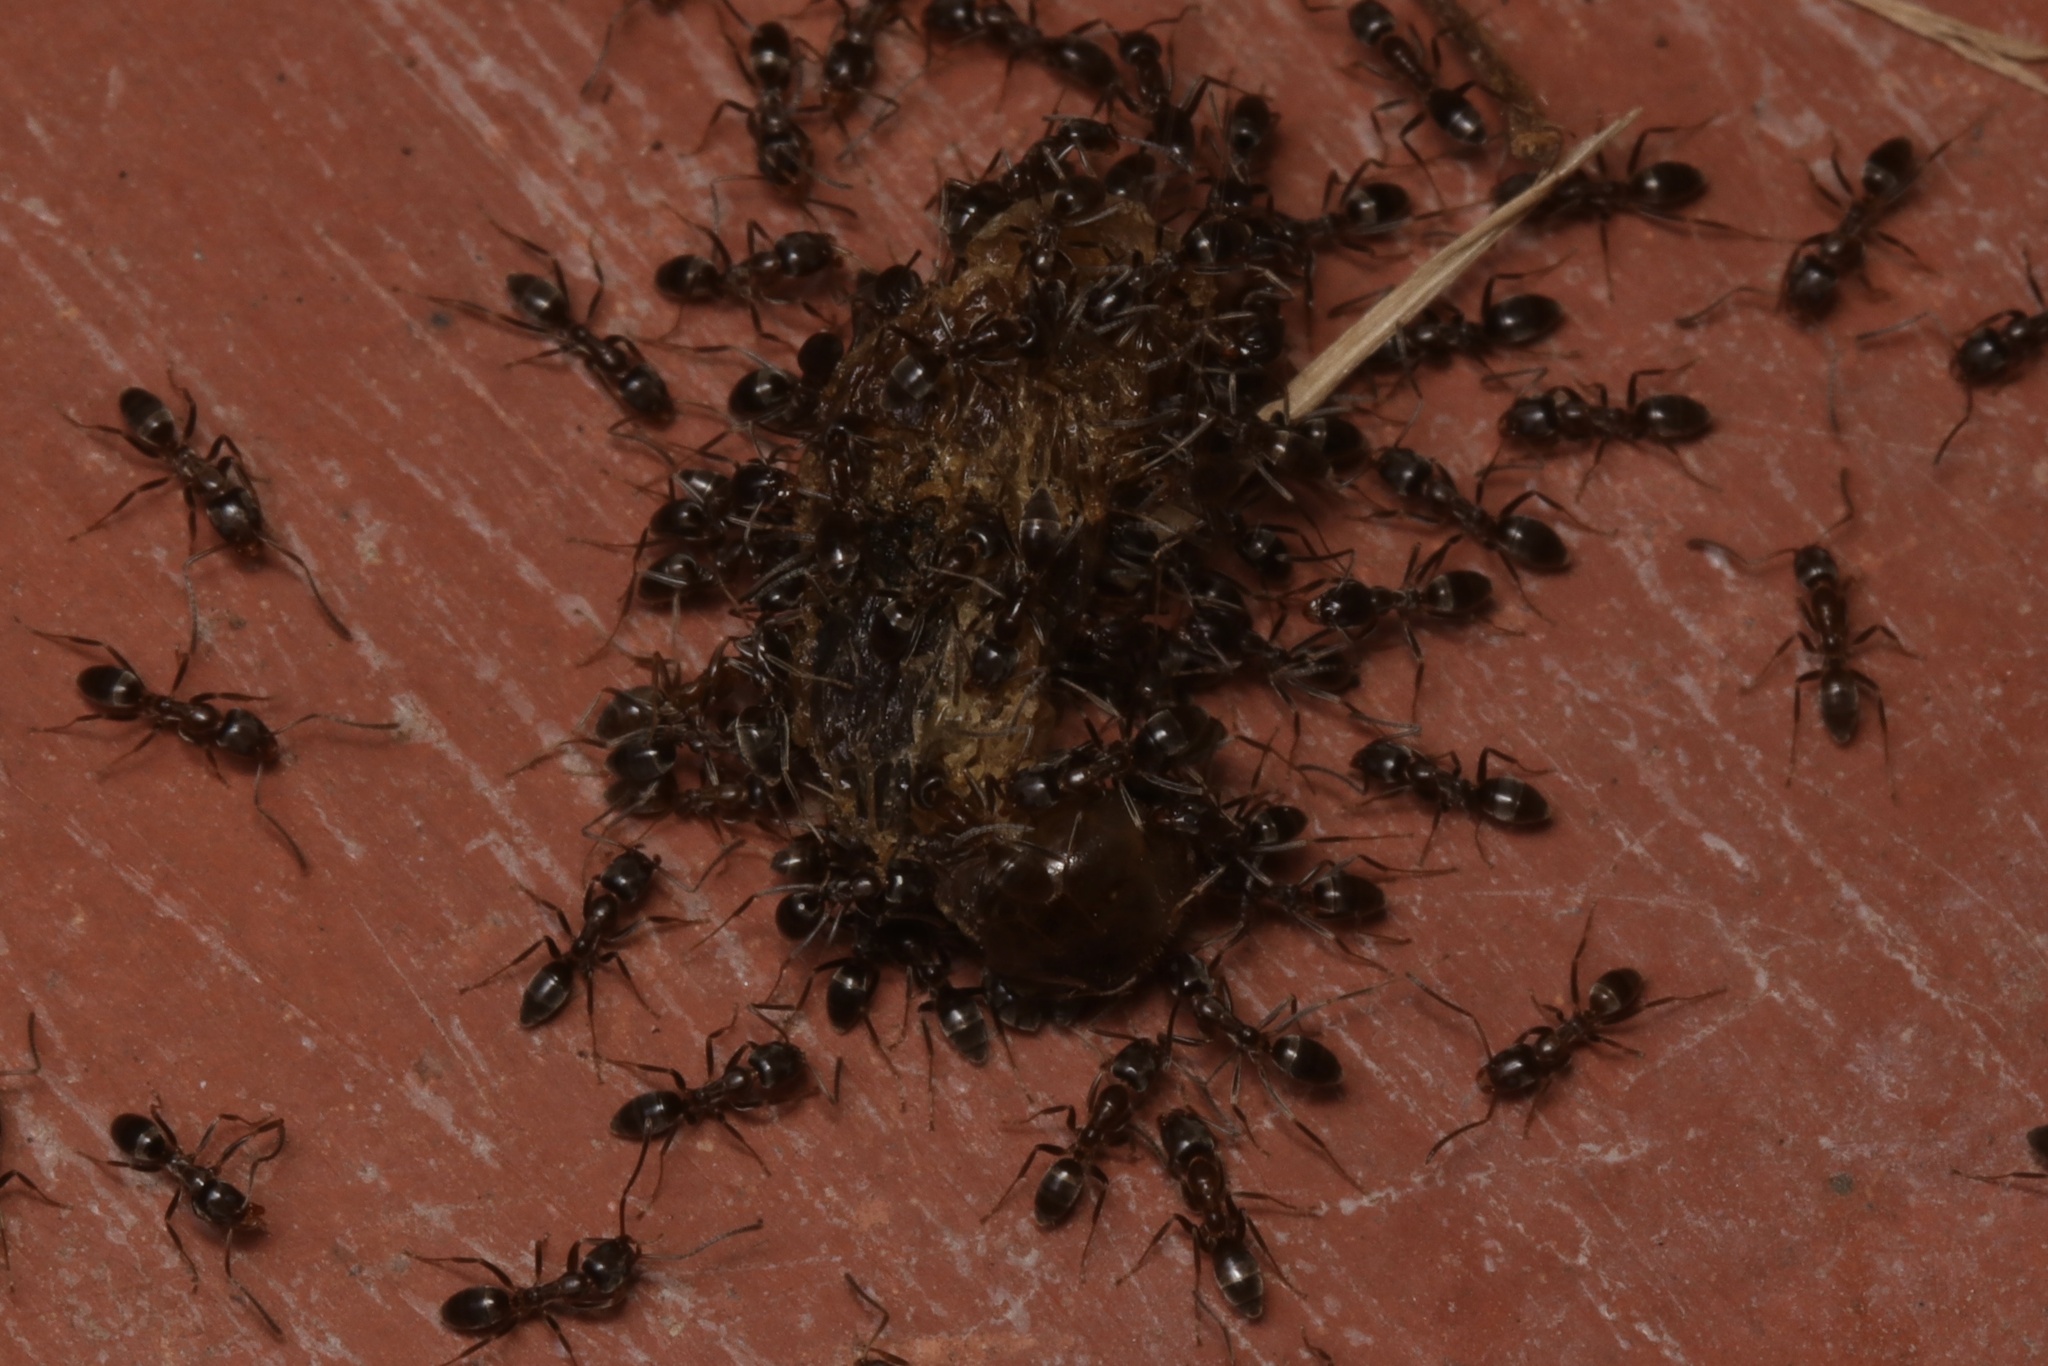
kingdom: Animalia
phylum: Arthropoda
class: Insecta
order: Hymenoptera
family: Formicidae
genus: Linepithema
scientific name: Linepithema humile
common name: Argentine ant
